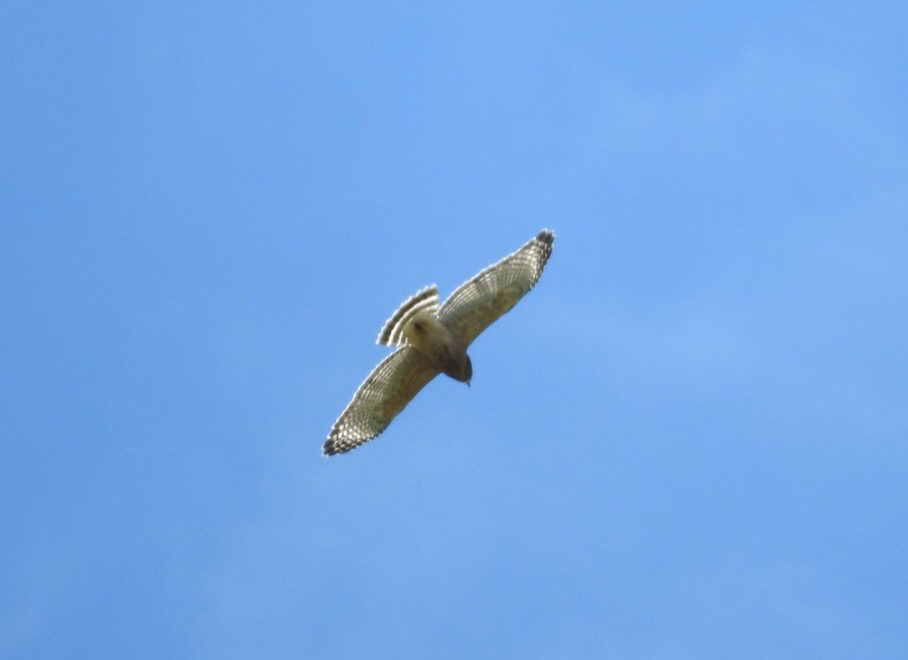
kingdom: Animalia
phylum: Chordata
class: Aves
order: Accipitriformes
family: Accipitridae
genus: Buteo
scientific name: Buteo lineatus
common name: Red-shouldered hawk
